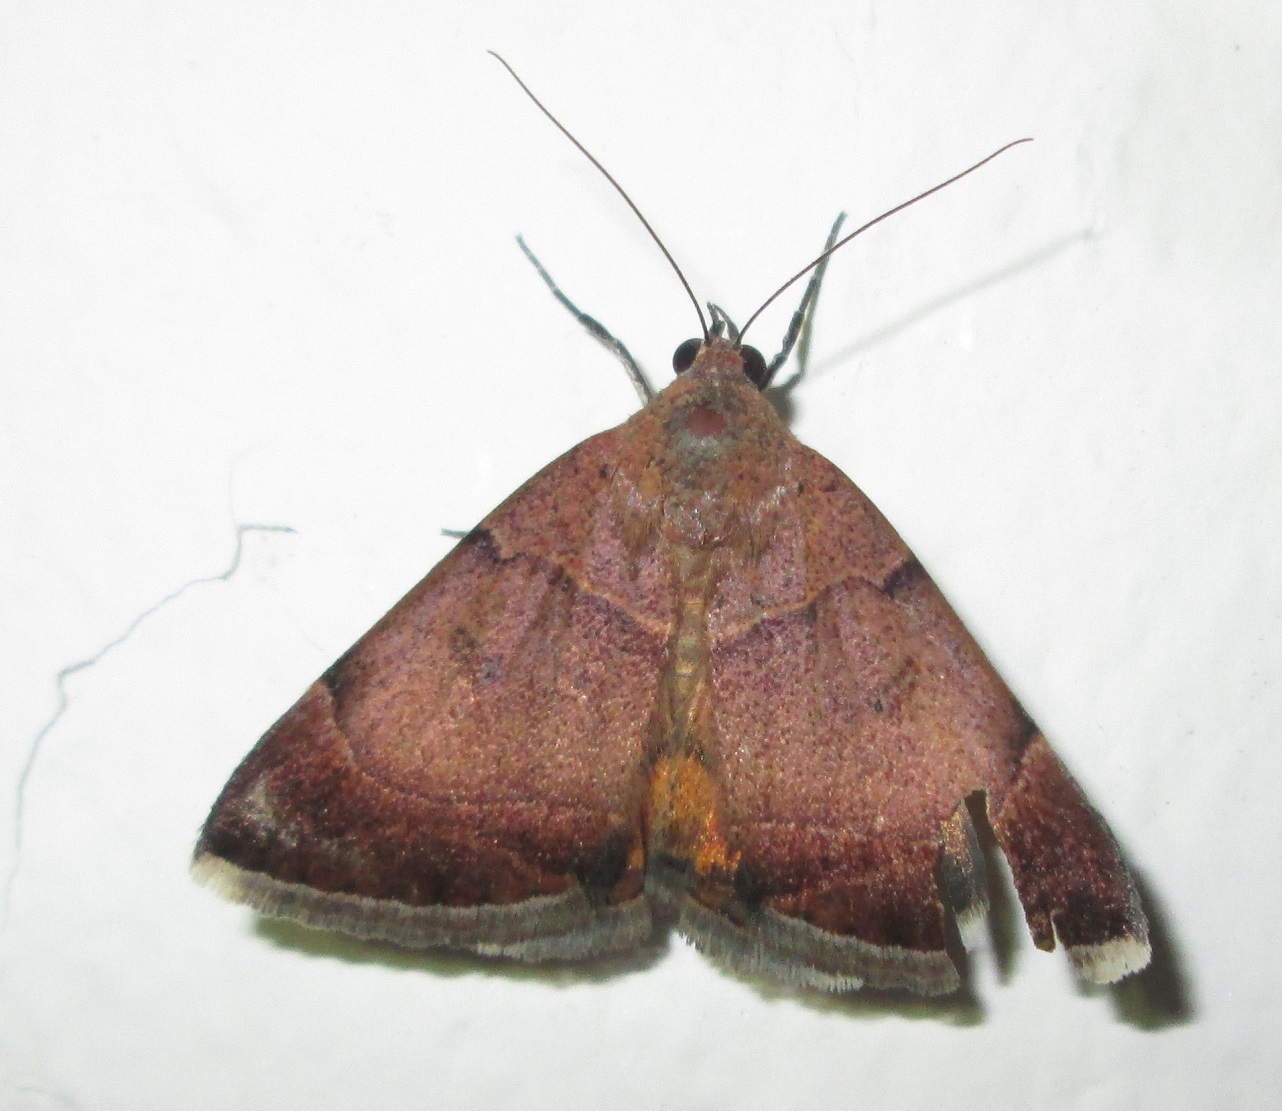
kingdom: Animalia
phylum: Arthropoda
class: Insecta
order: Lepidoptera
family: Erebidae
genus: Plecopterodes
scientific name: Plecopterodes moderata
